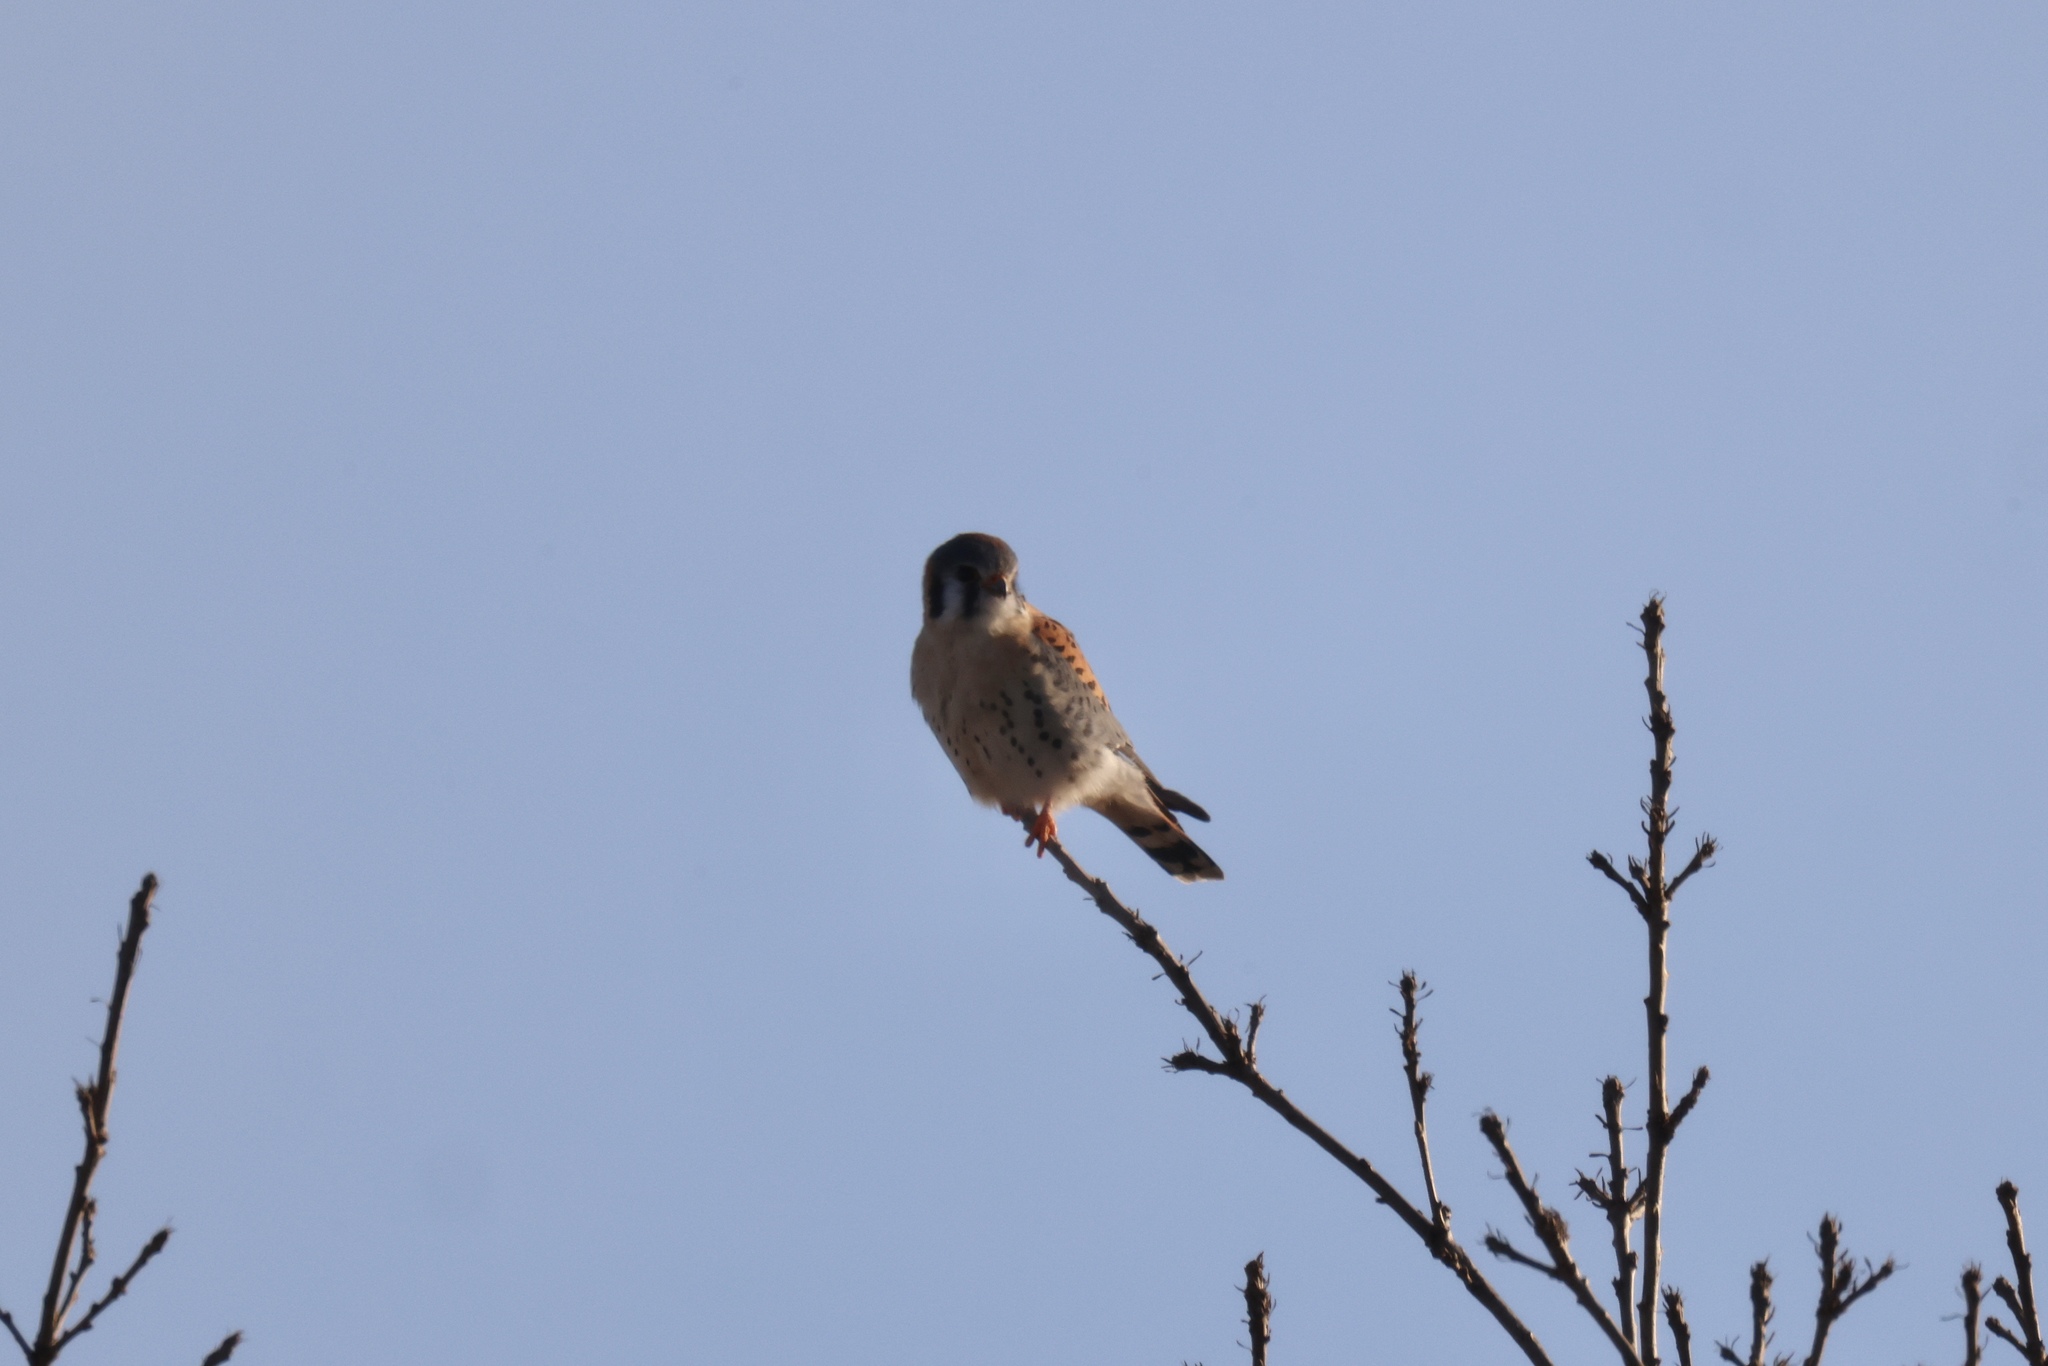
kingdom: Animalia
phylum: Chordata
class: Aves
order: Falconiformes
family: Falconidae
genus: Falco
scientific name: Falco sparverius
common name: American kestrel
